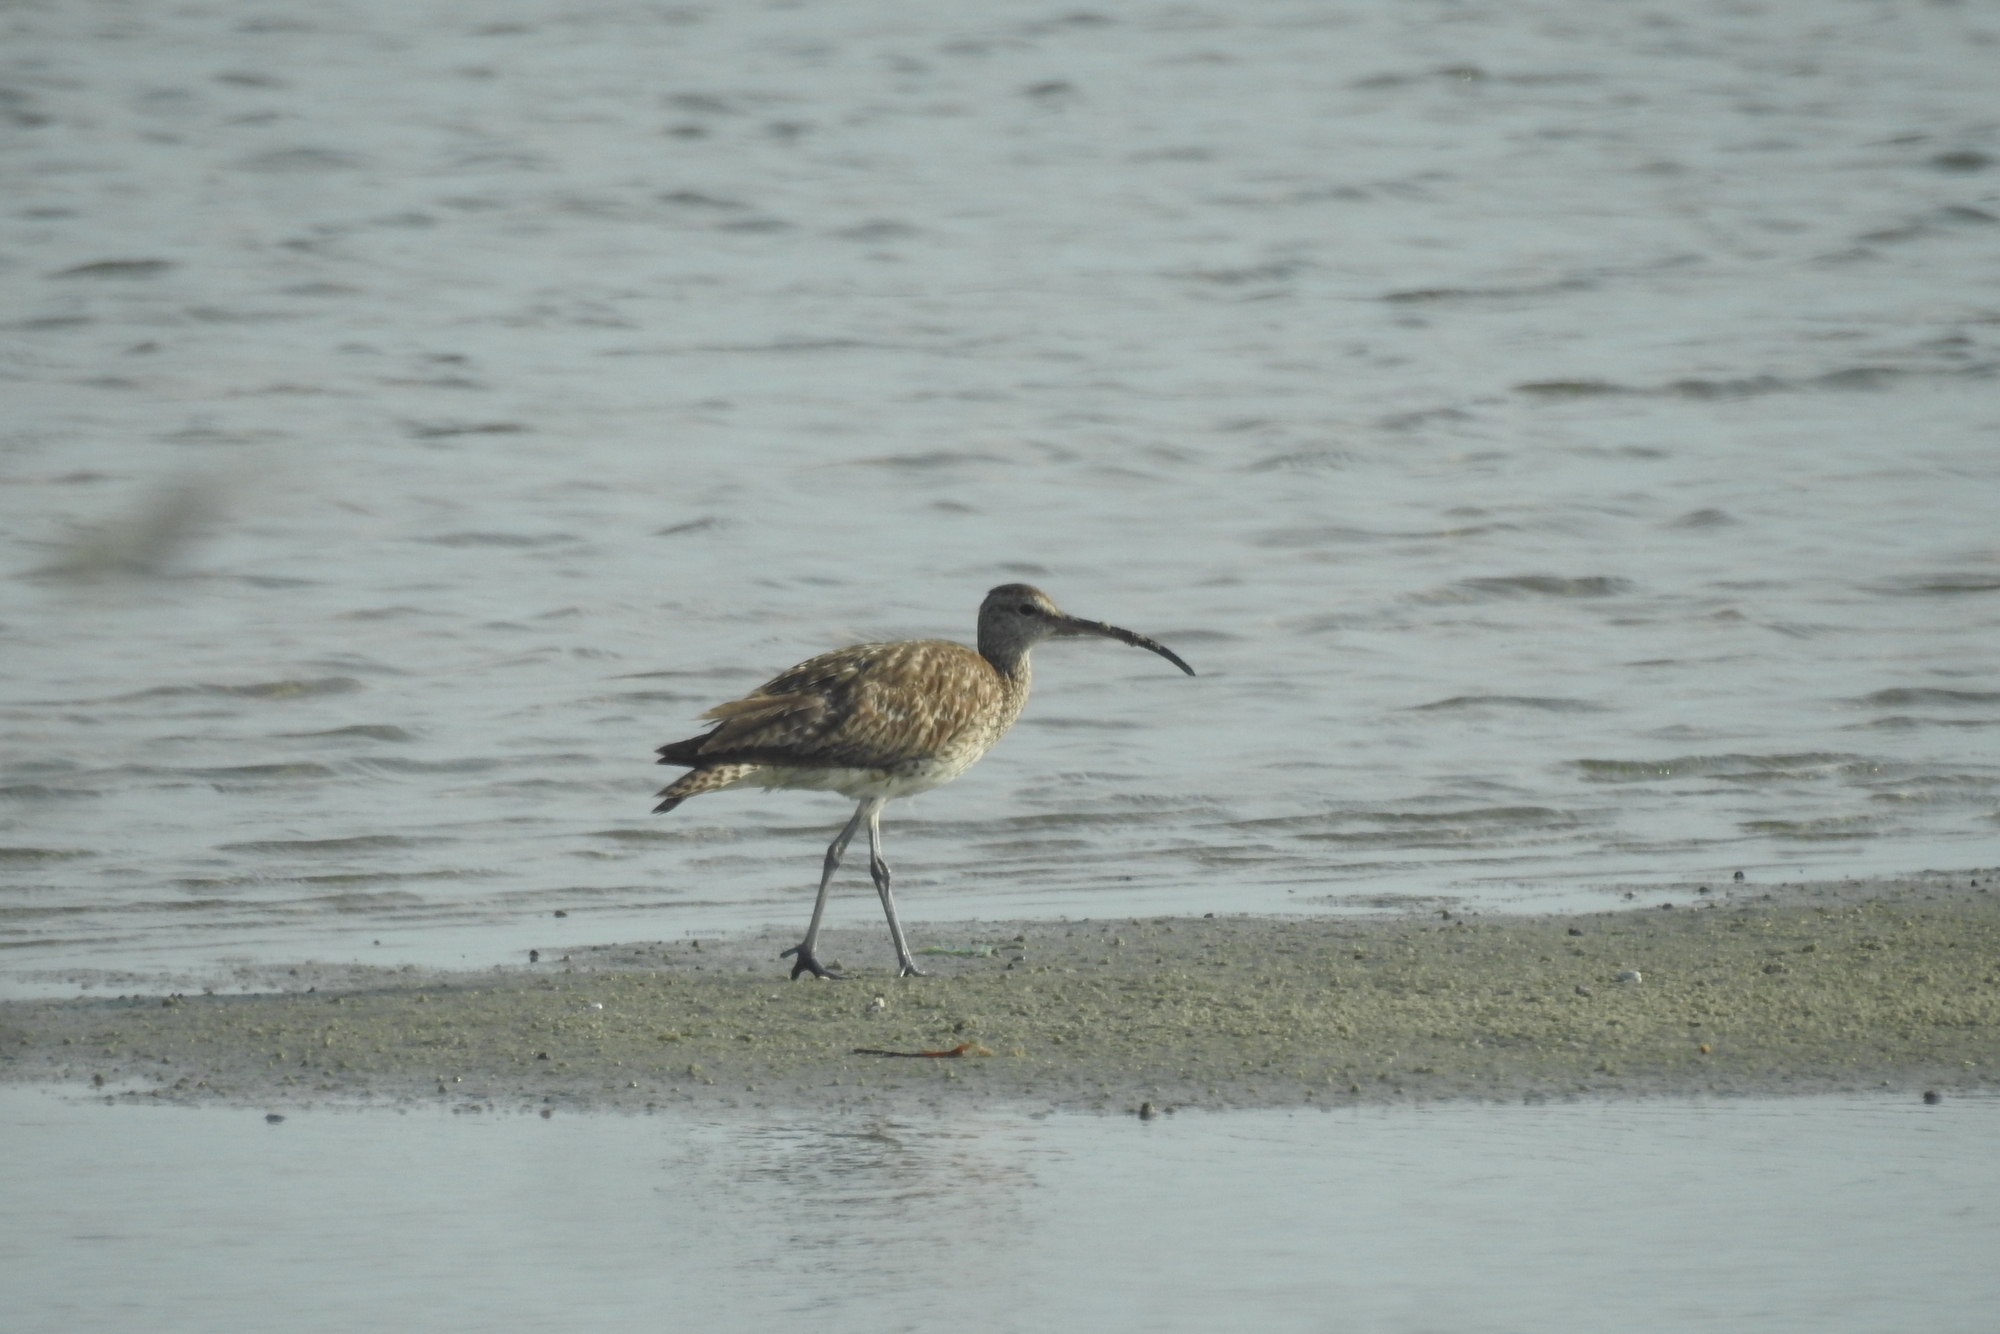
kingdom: Animalia
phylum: Chordata
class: Aves
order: Charadriiformes
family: Scolopacidae
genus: Numenius
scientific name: Numenius arquata
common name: Eurasian curlew
